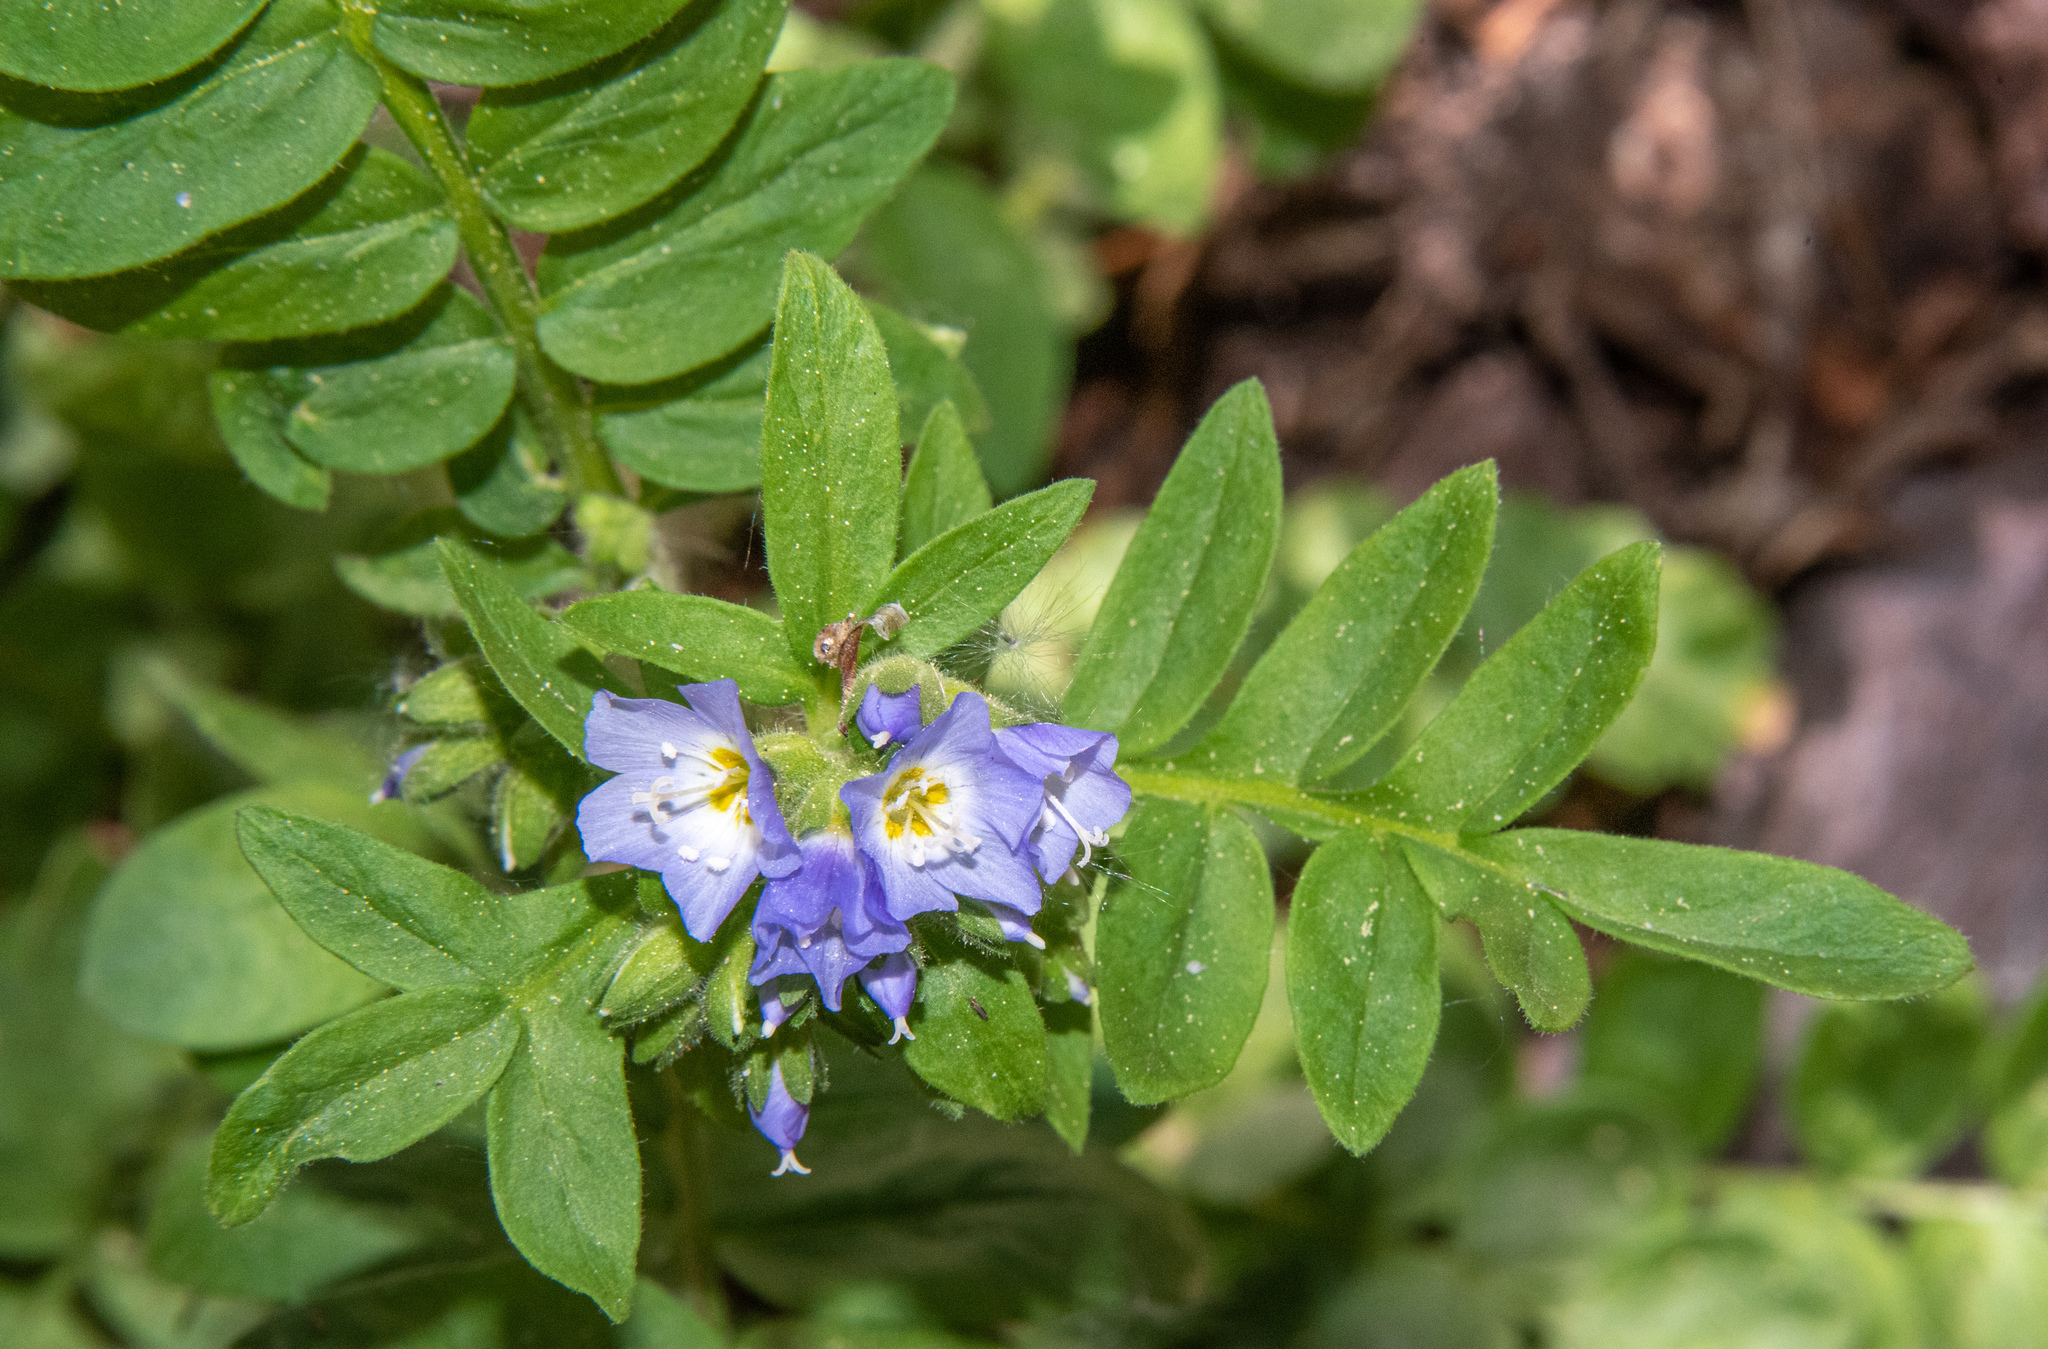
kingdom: Plantae
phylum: Tracheophyta
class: Magnoliopsida
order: Ericales
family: Polemoniaceae
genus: Polemonium
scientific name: Polemonium californicum
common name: California jacob's ladder
